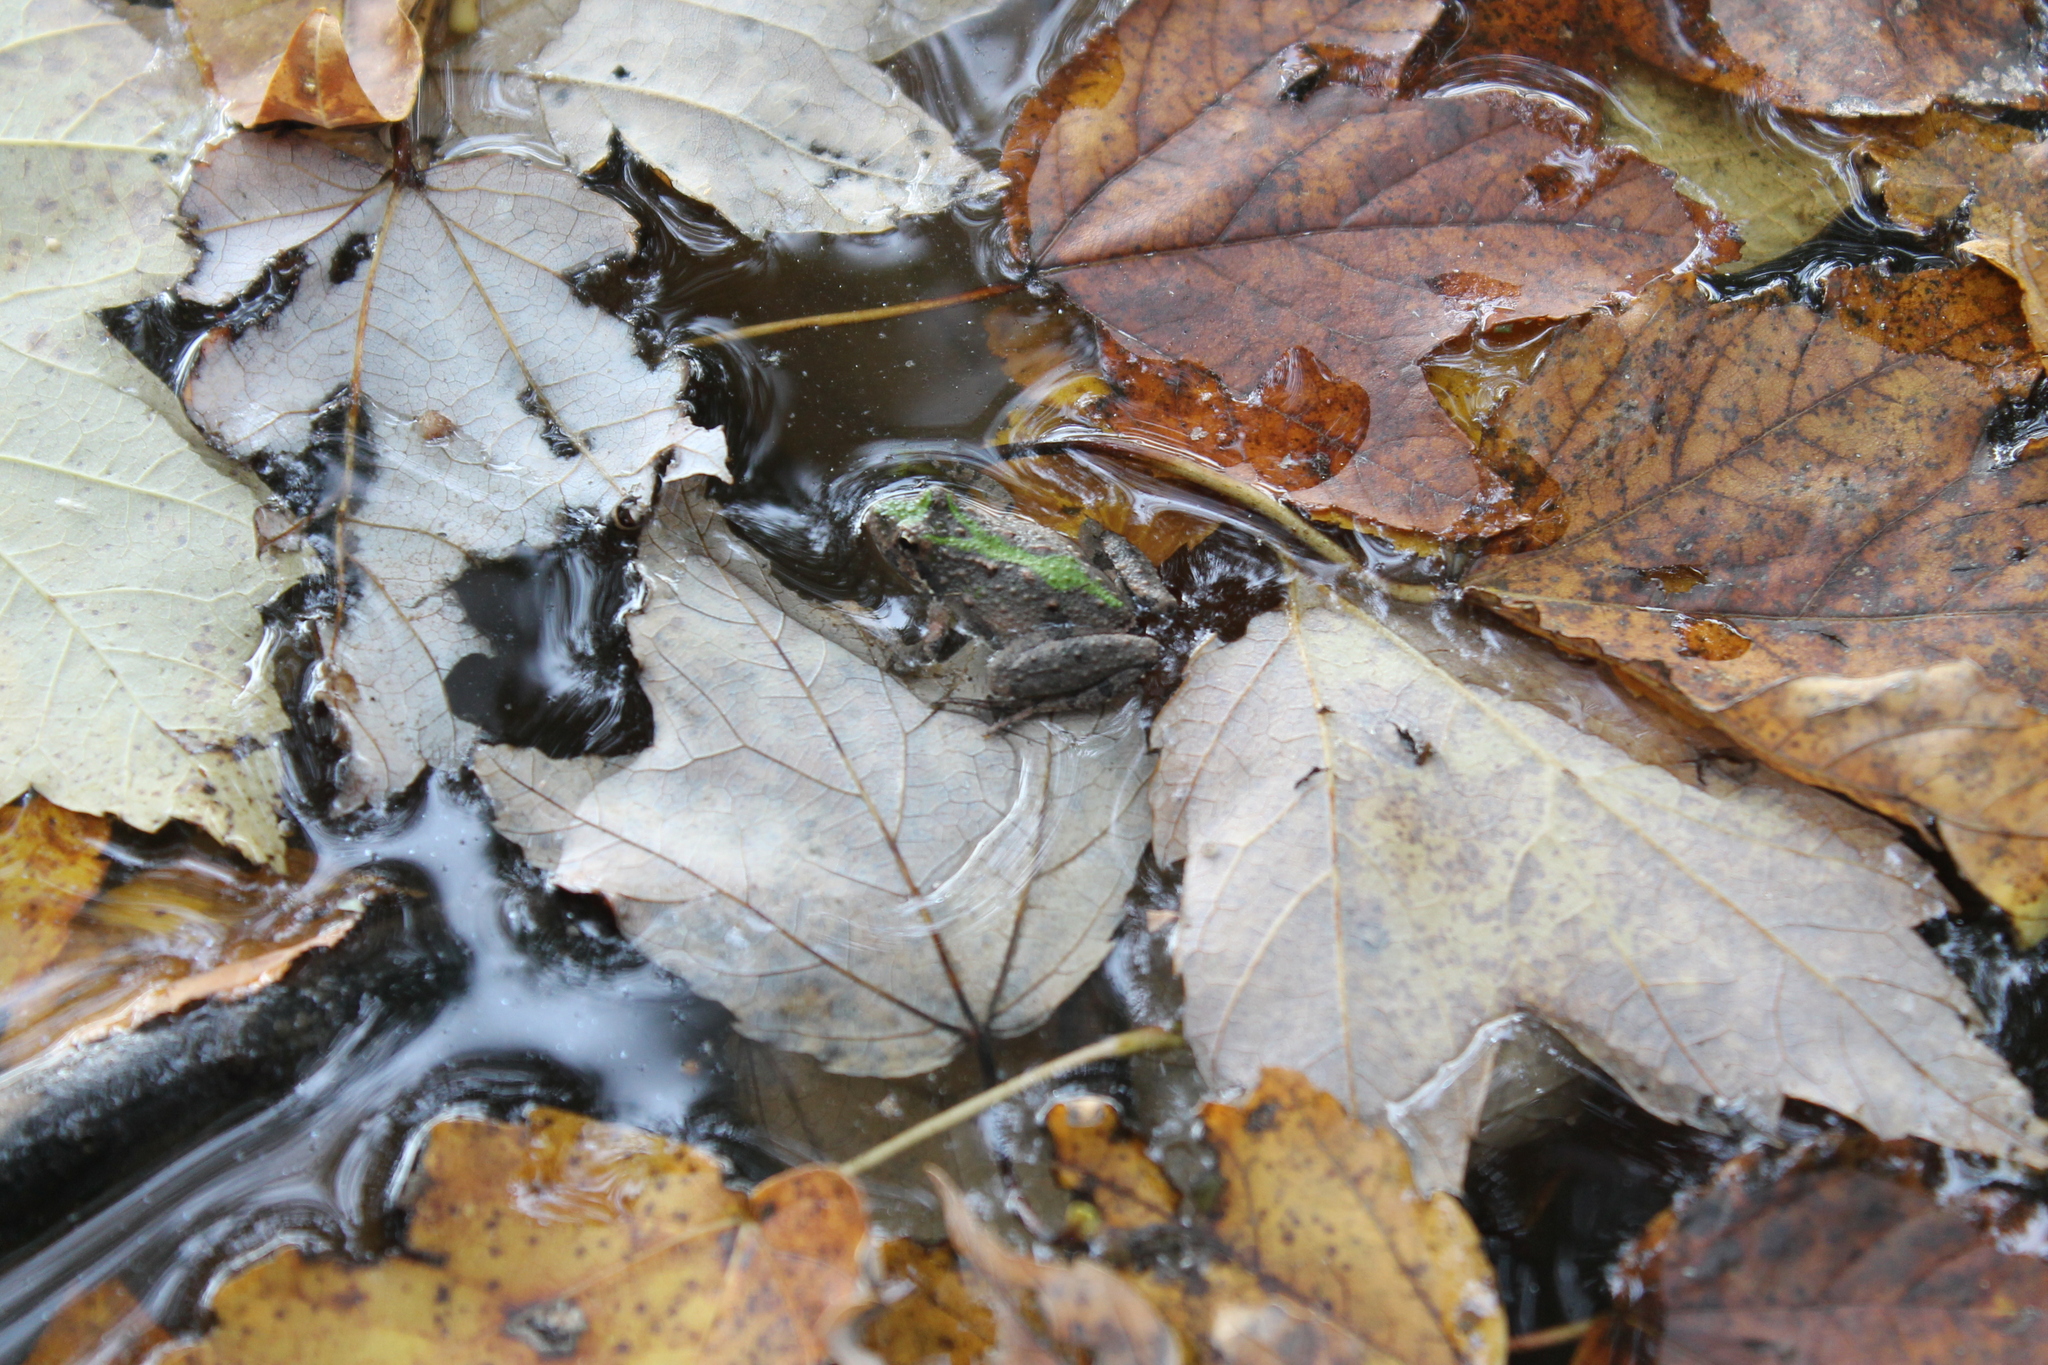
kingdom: Animalia
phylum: Chordata
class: Amphibia
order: Anura
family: Hylidae
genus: Acris
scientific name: Acris crepitans
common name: Northern cricket frog
